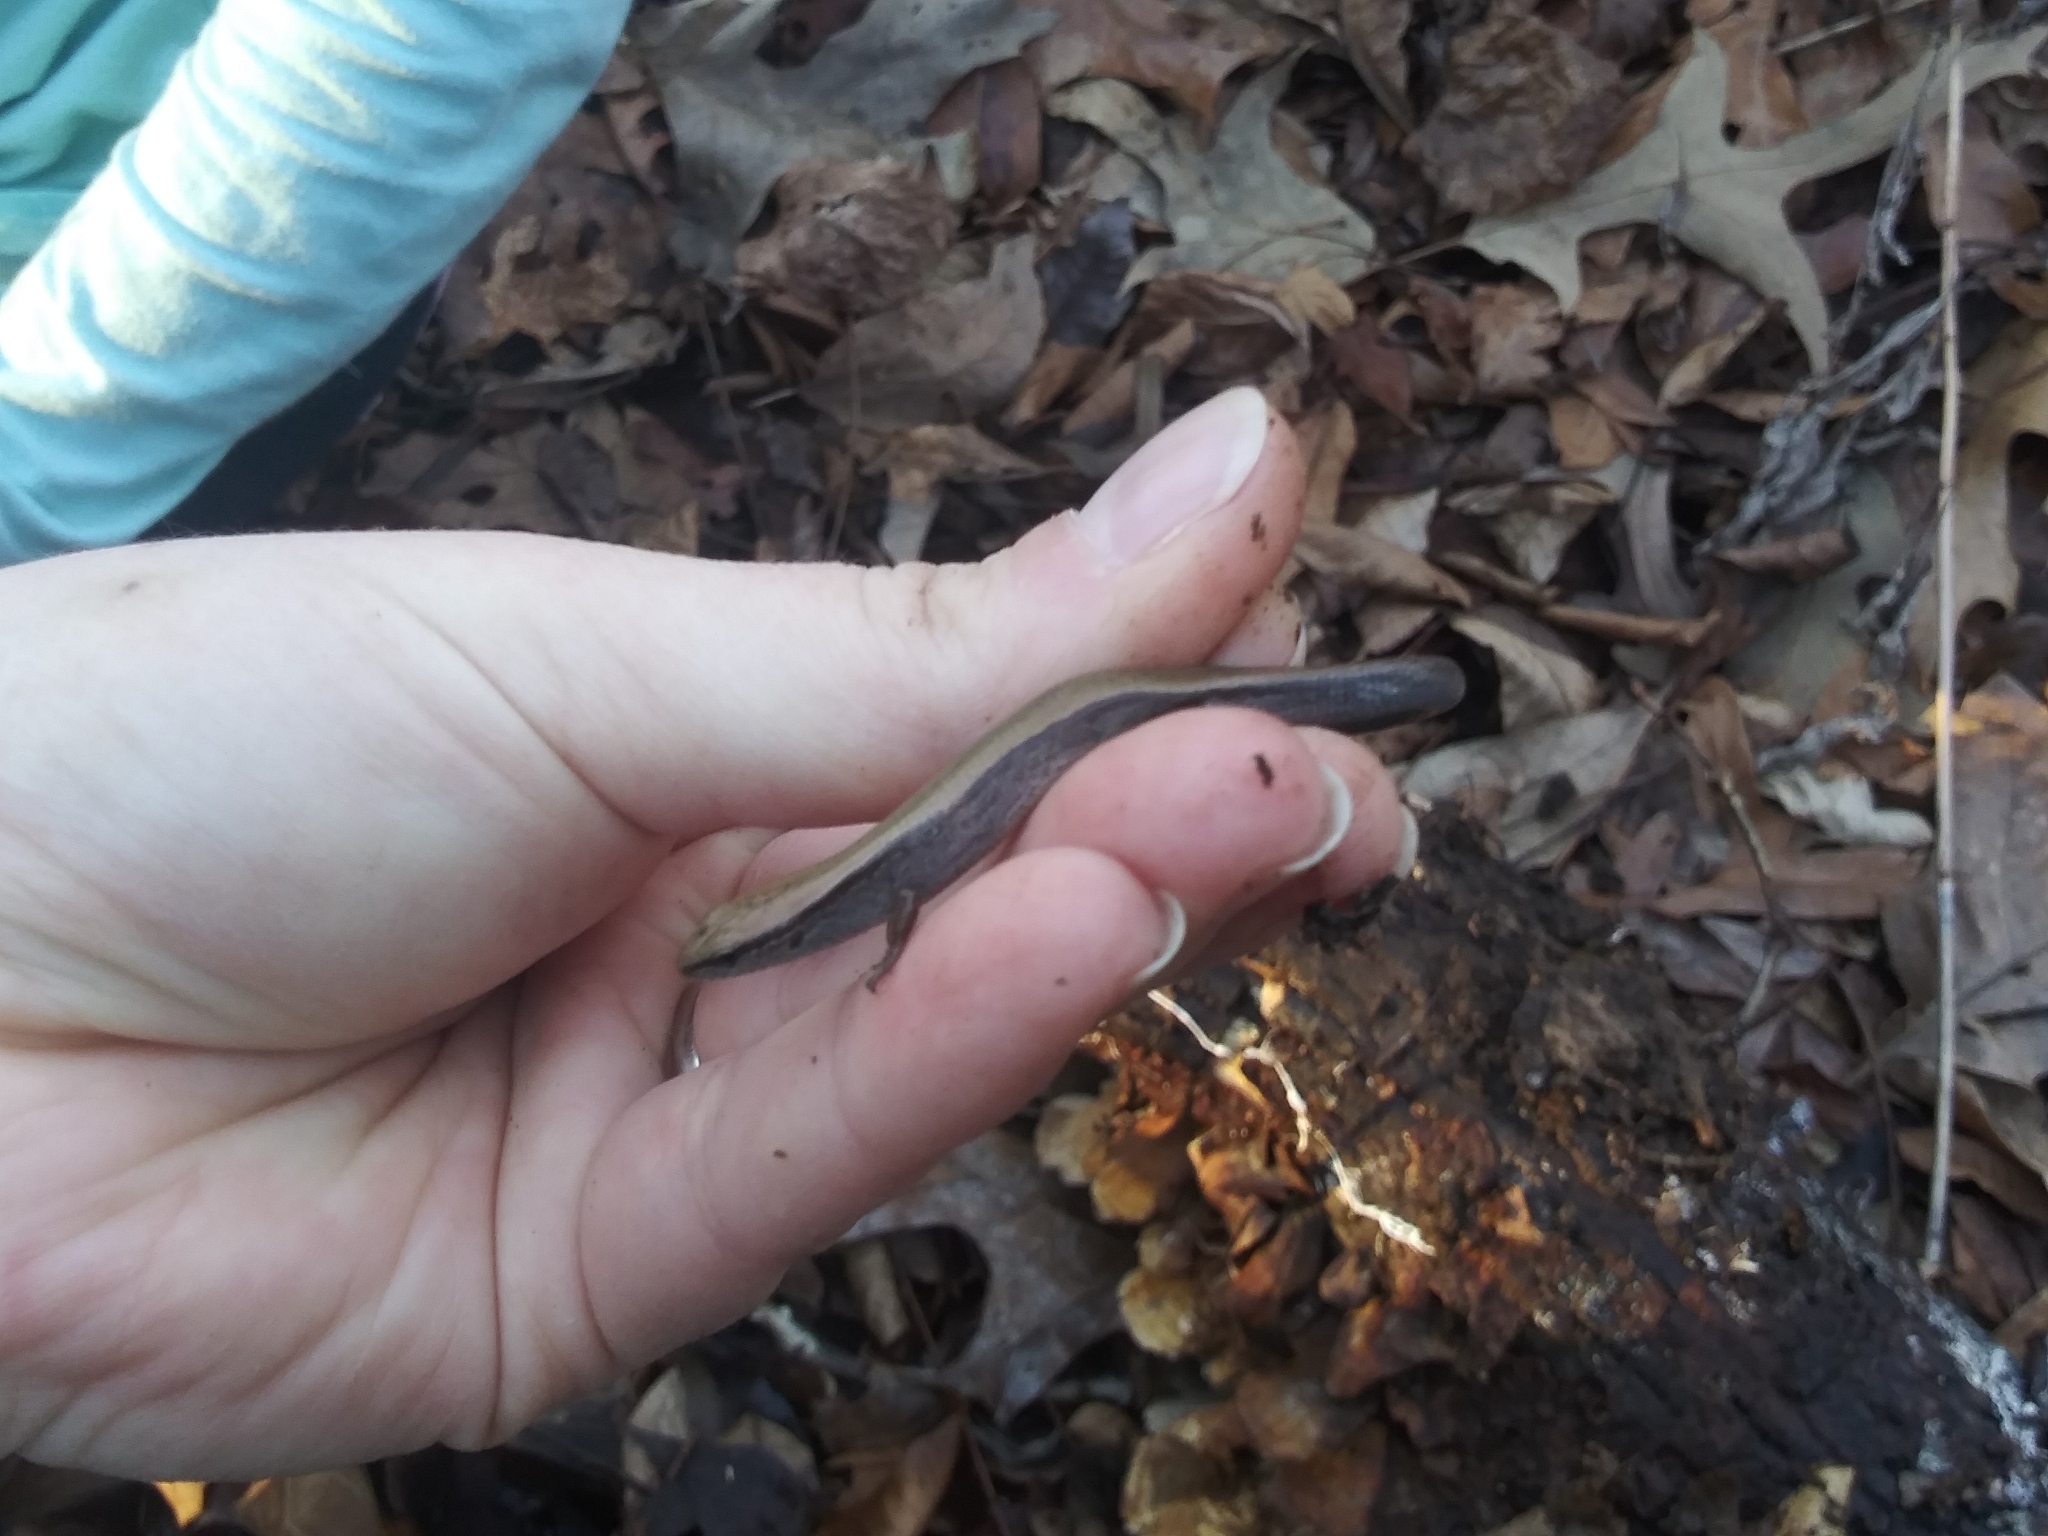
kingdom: Animalia
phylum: Chordata
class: Squamata
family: Scincidae
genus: Scincella
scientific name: Scincella lateralis
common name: Ground skink
